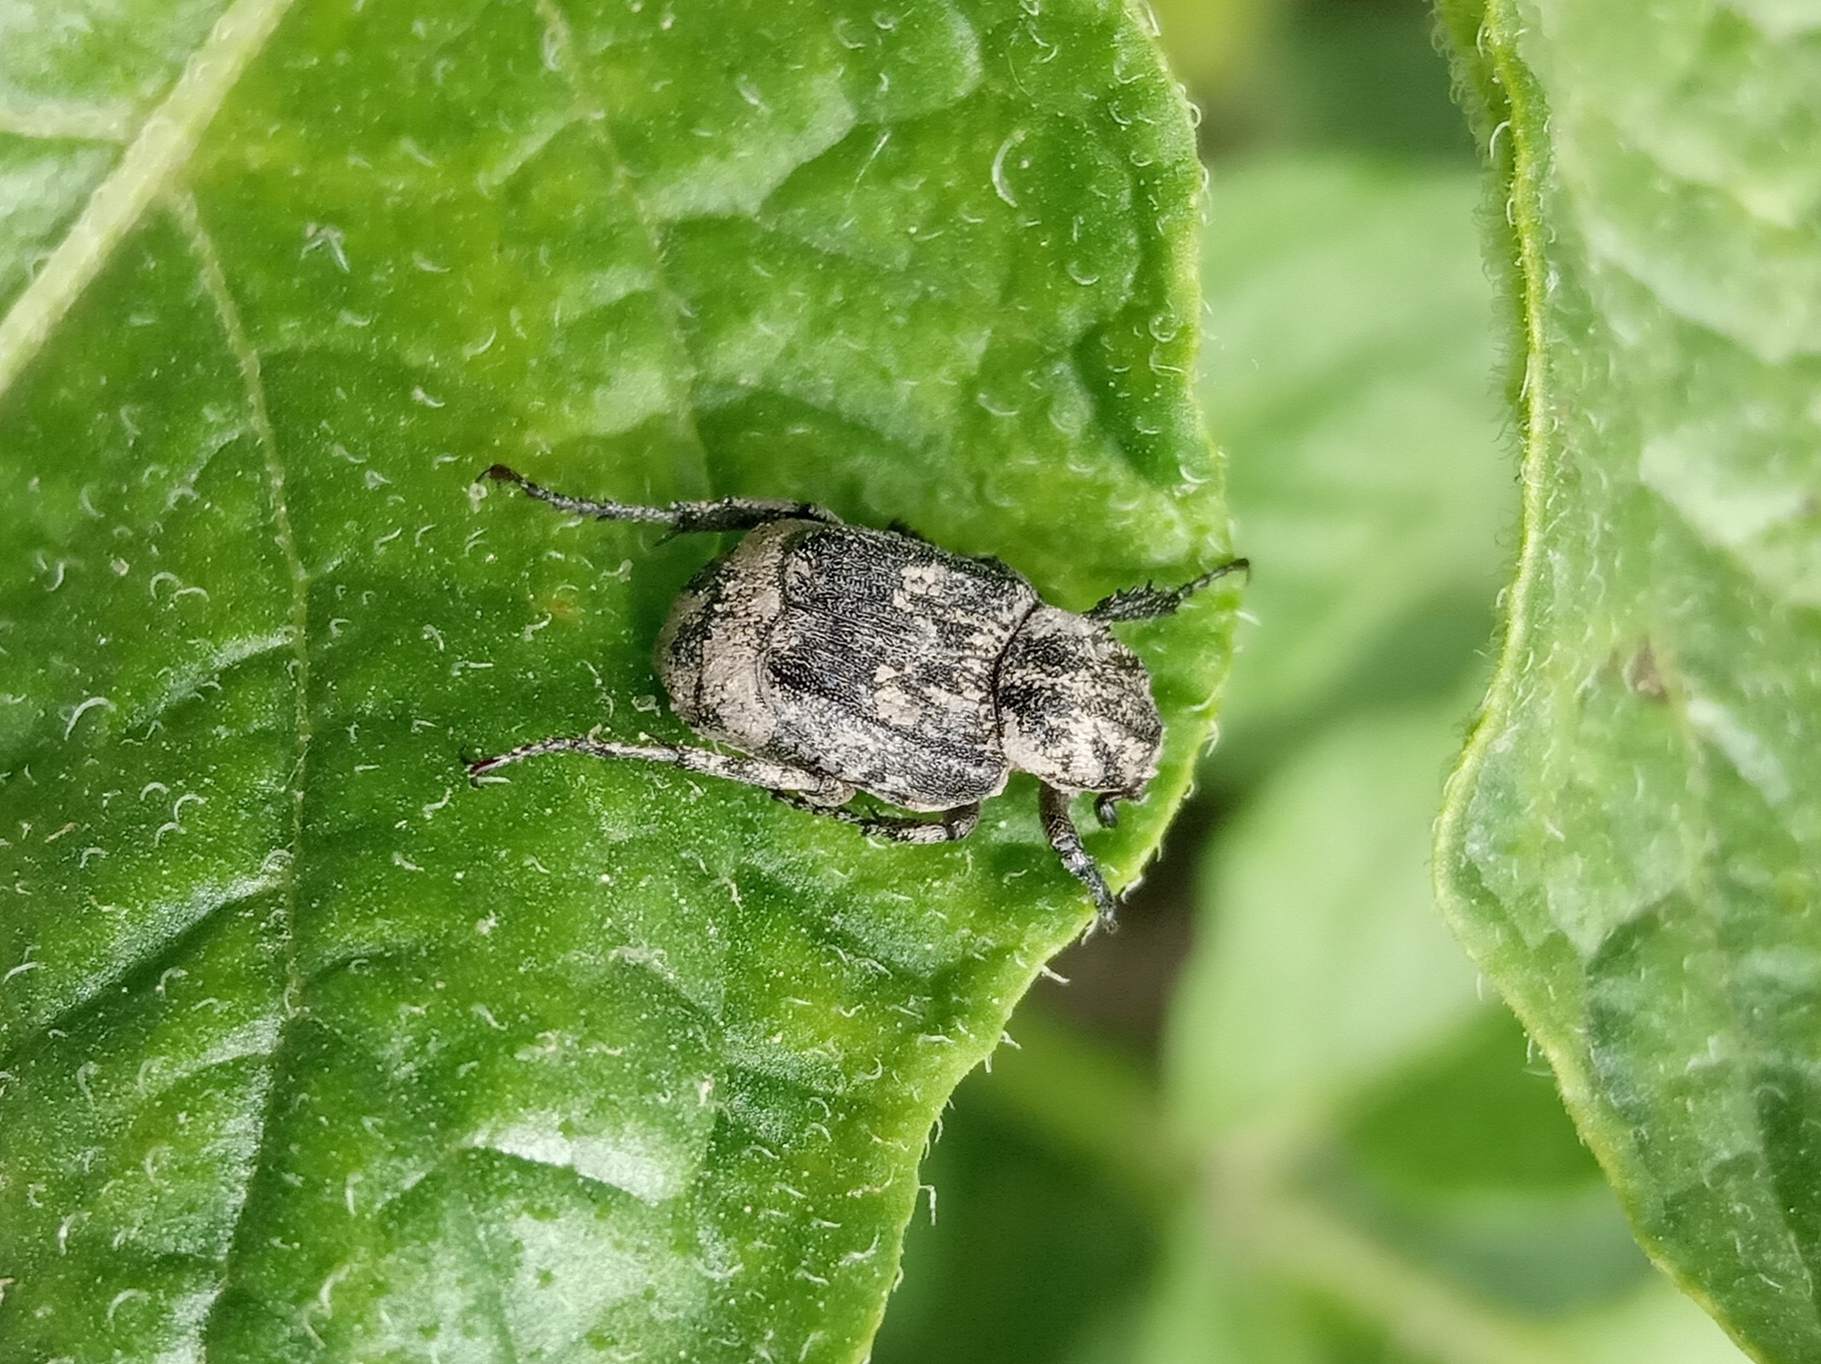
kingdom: Animalia
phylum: Arthropoda
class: Insecta
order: Coleoptera
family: Scarabaeidae
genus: Valgus
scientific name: Valgus hemipterus
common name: Bug flower chafer
